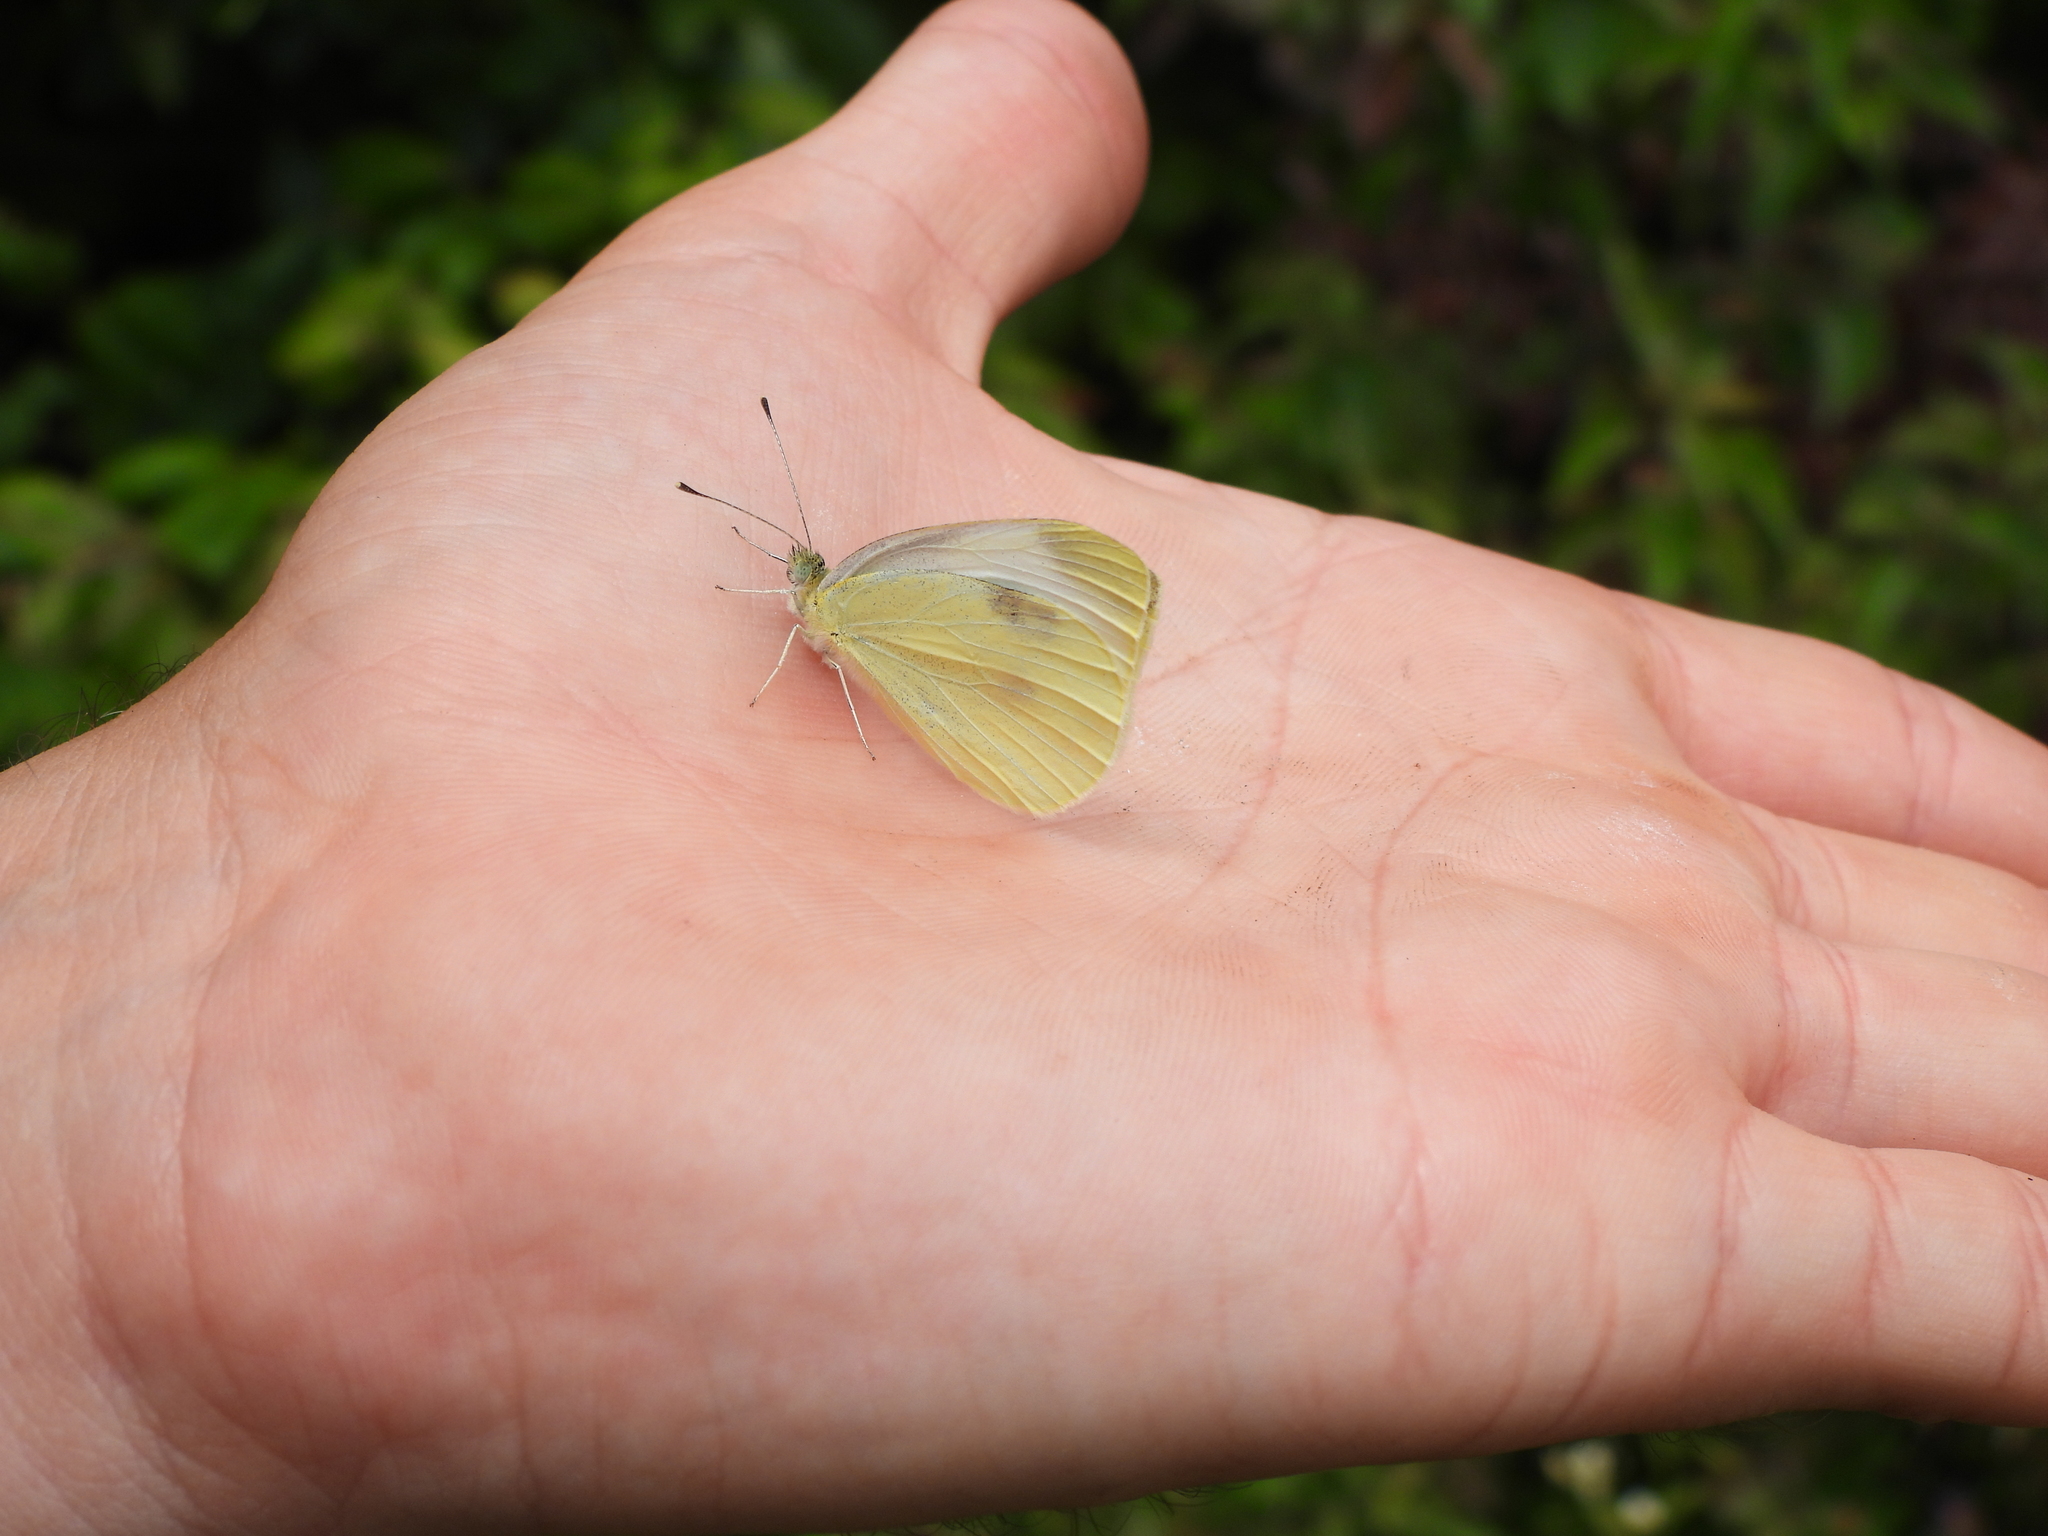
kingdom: Animalia
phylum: Arthropoda
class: Insecta
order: Lepidoptera
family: Pieridae
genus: Pieris
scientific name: Pieris rapae
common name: Small white
